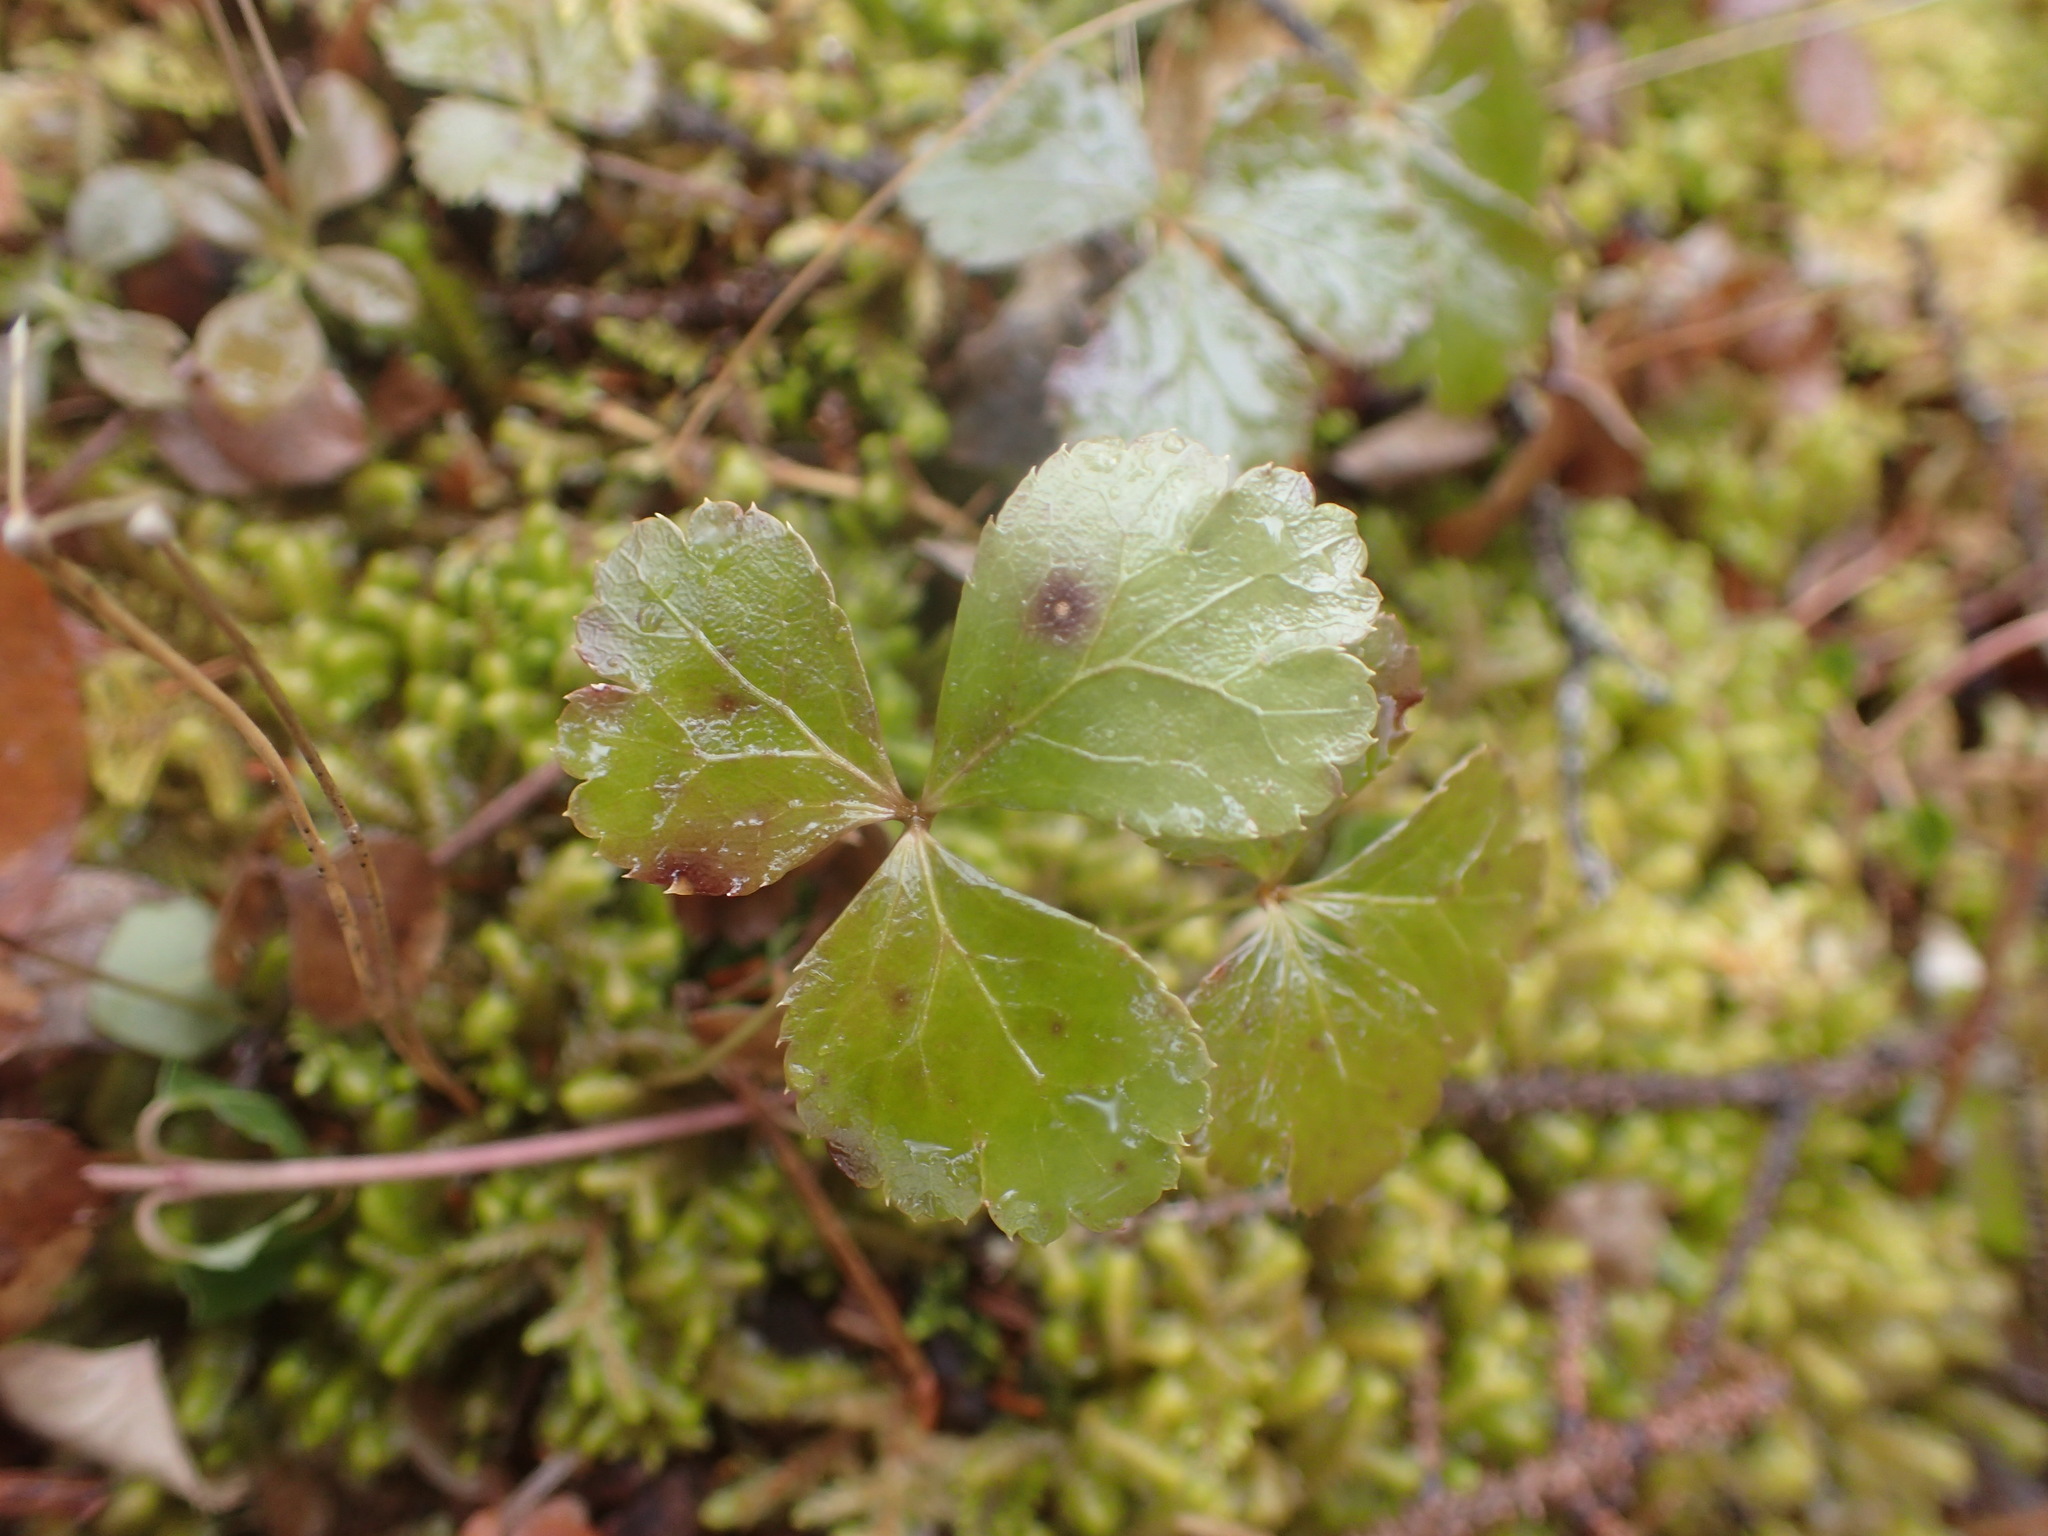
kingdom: Plantae
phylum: Tracheophyta
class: Magnoliopsida
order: Ranunculales
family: Ranunculaceae
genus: Coptis
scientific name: Coptis trifolia
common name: Canker-root
